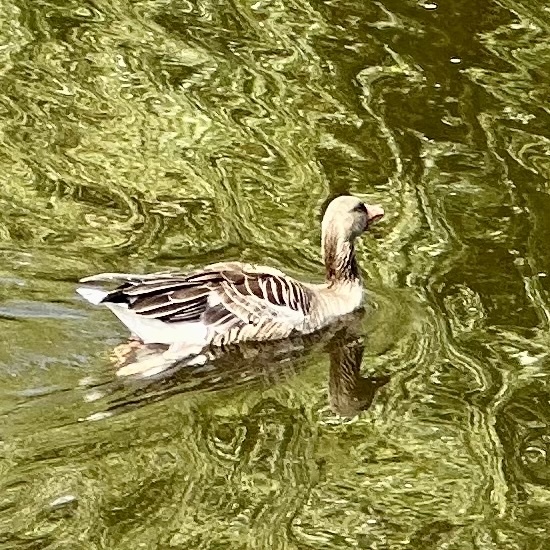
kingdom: Animalia
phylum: Chordata
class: Aves
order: Anseriformes
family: Anatidae
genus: Anser
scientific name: Anser anser
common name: Greylag goose
